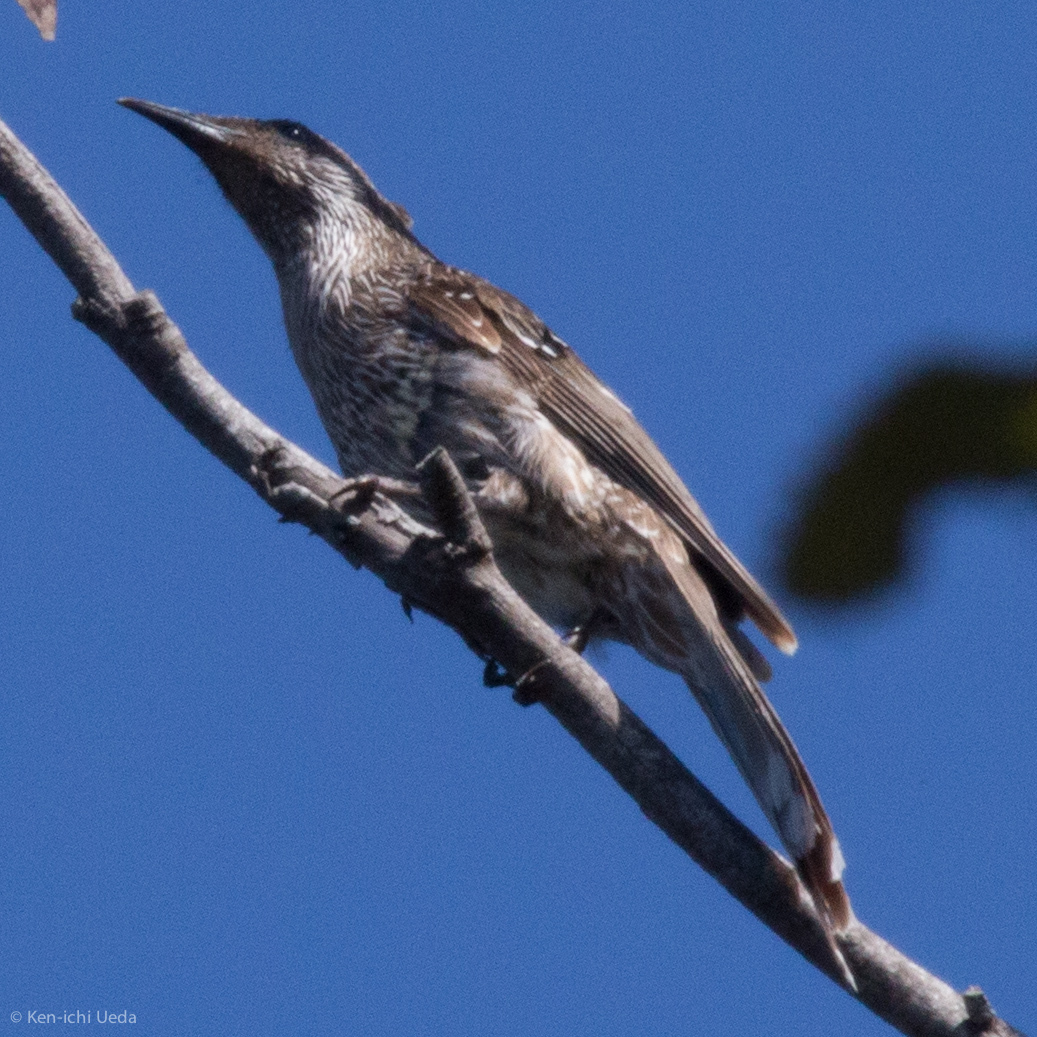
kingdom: Animalia
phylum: Chordata
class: Aves
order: Passeriformes
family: Meliphagidae
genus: Anthochaera
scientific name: Anthochaera chrysoptera
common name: Little wattlebird
